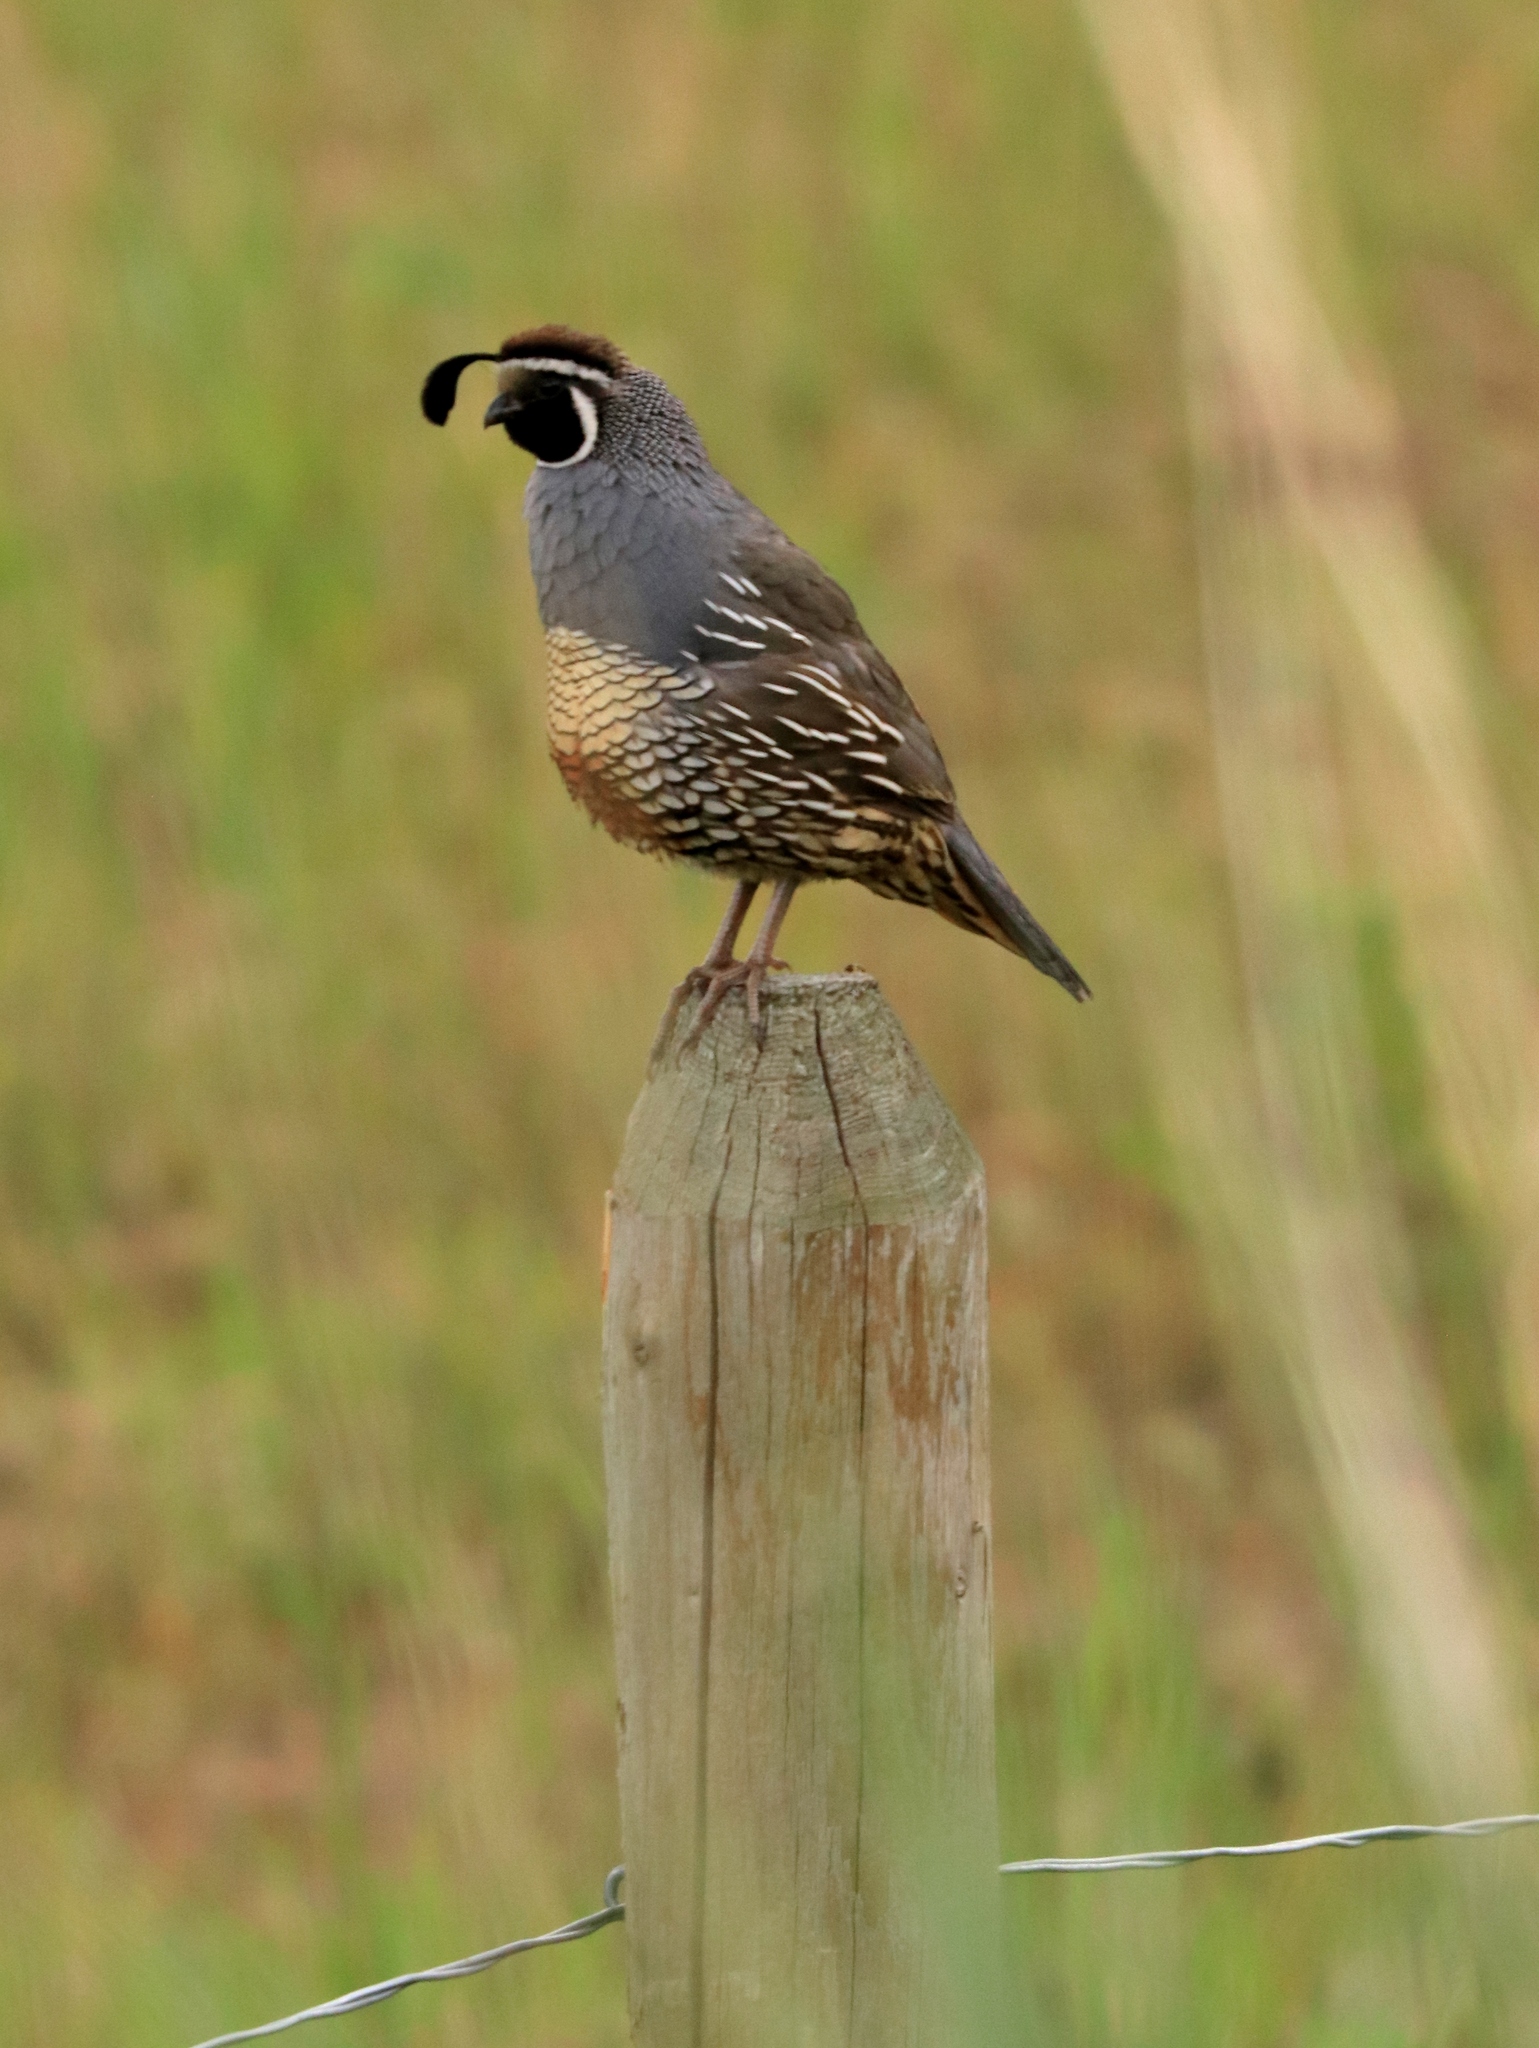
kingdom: Animalia
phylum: Chordata
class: Aves
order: Galliformes
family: Odontophoridae
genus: Callipepla
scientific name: Callipepla californica
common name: California quail
